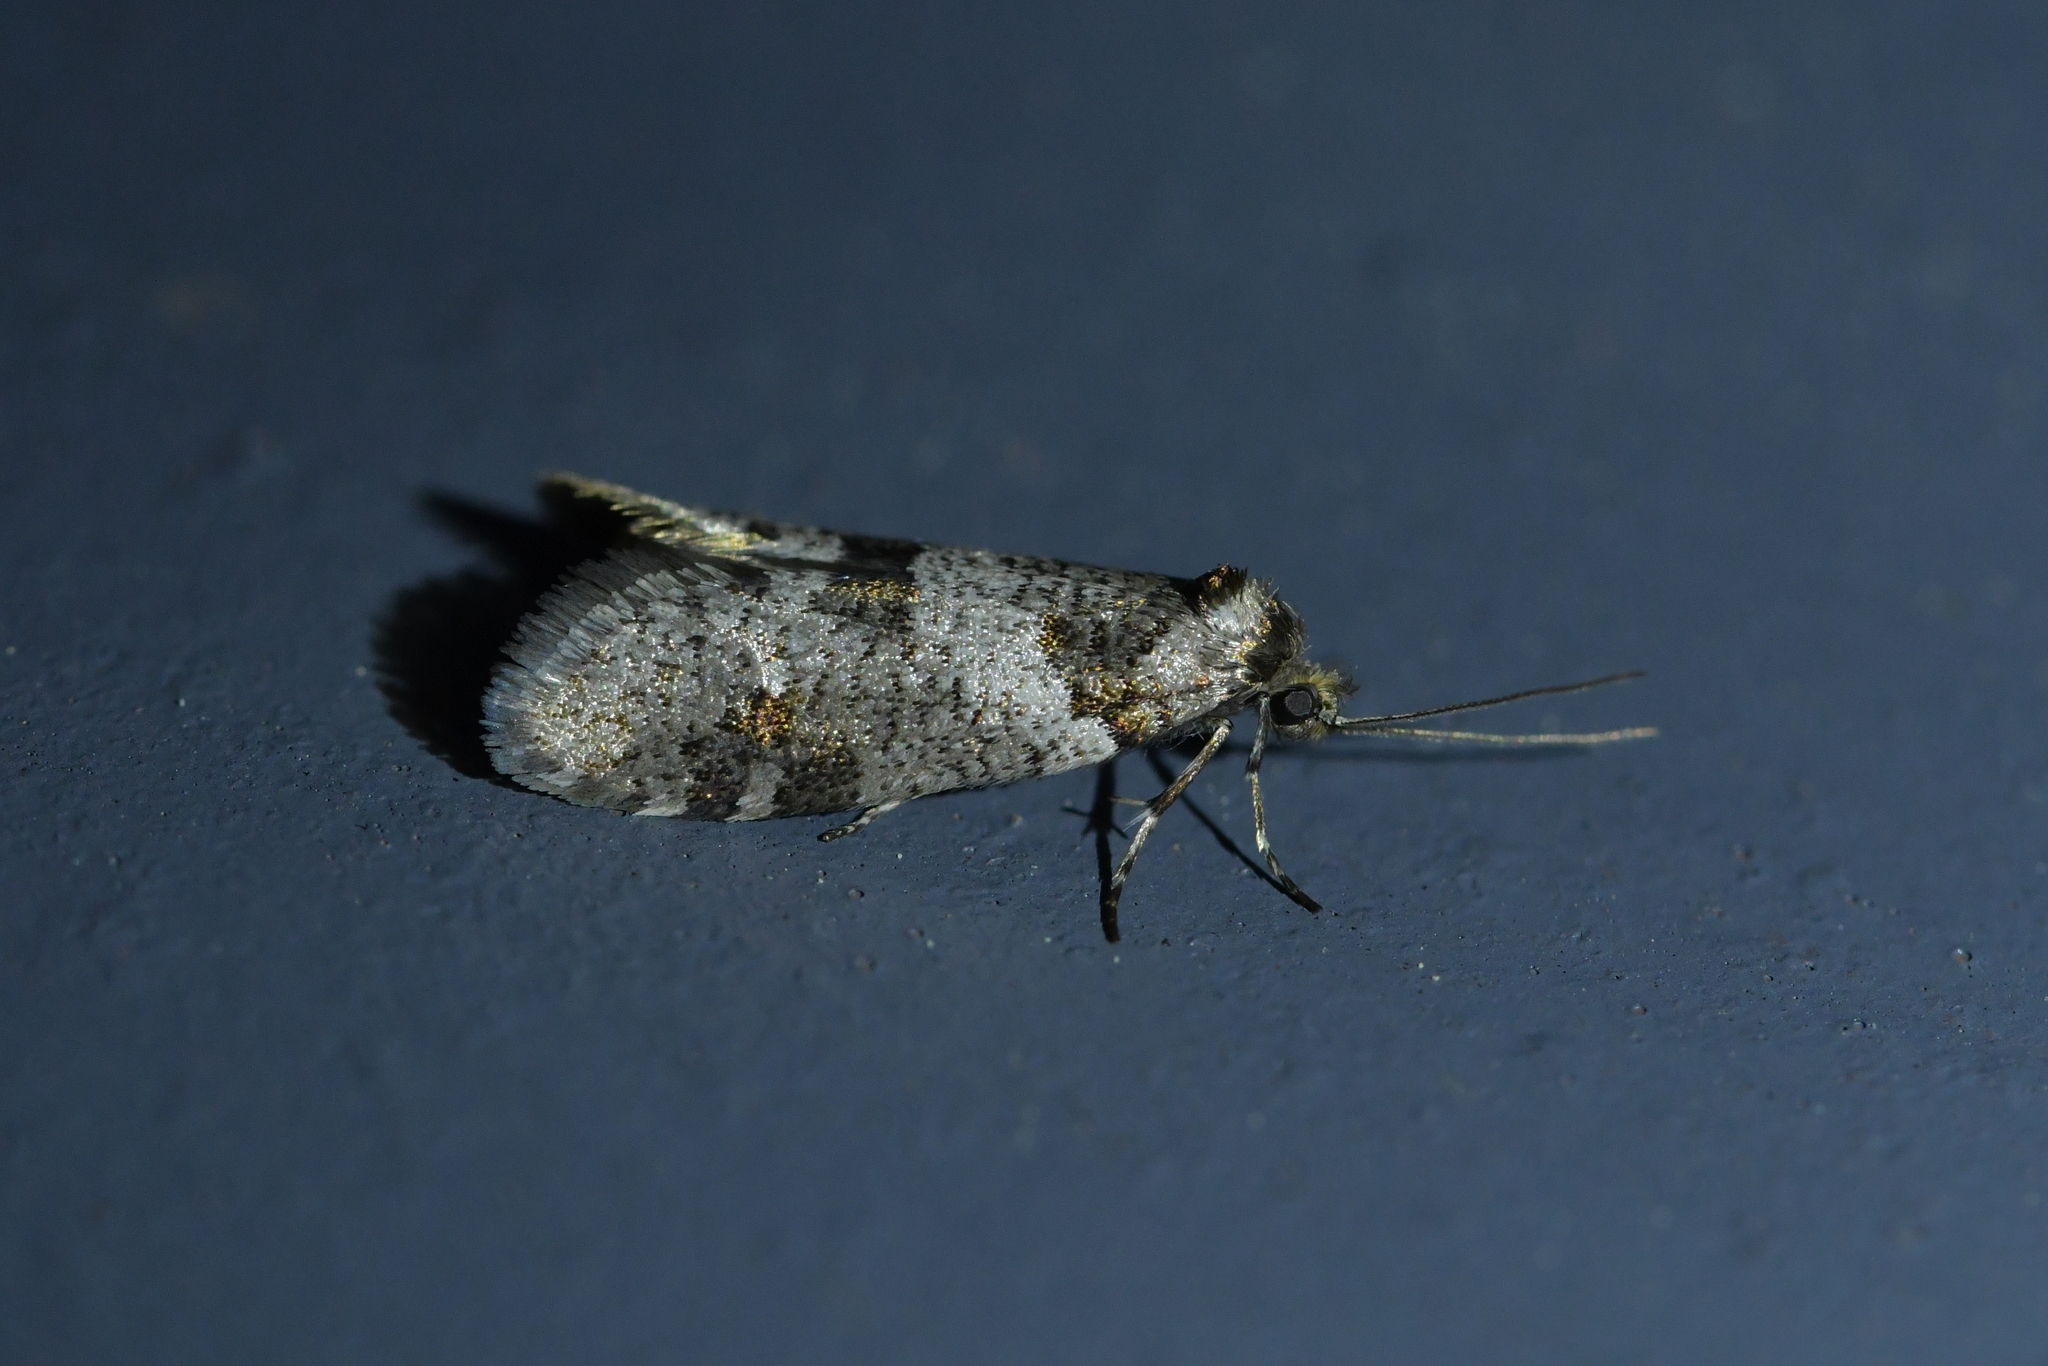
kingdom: Animalia
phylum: Arthropoda
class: Insecta
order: Lepidoptera
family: Psychidae
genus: Lepidoscia
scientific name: Lepidoscia heliochares
